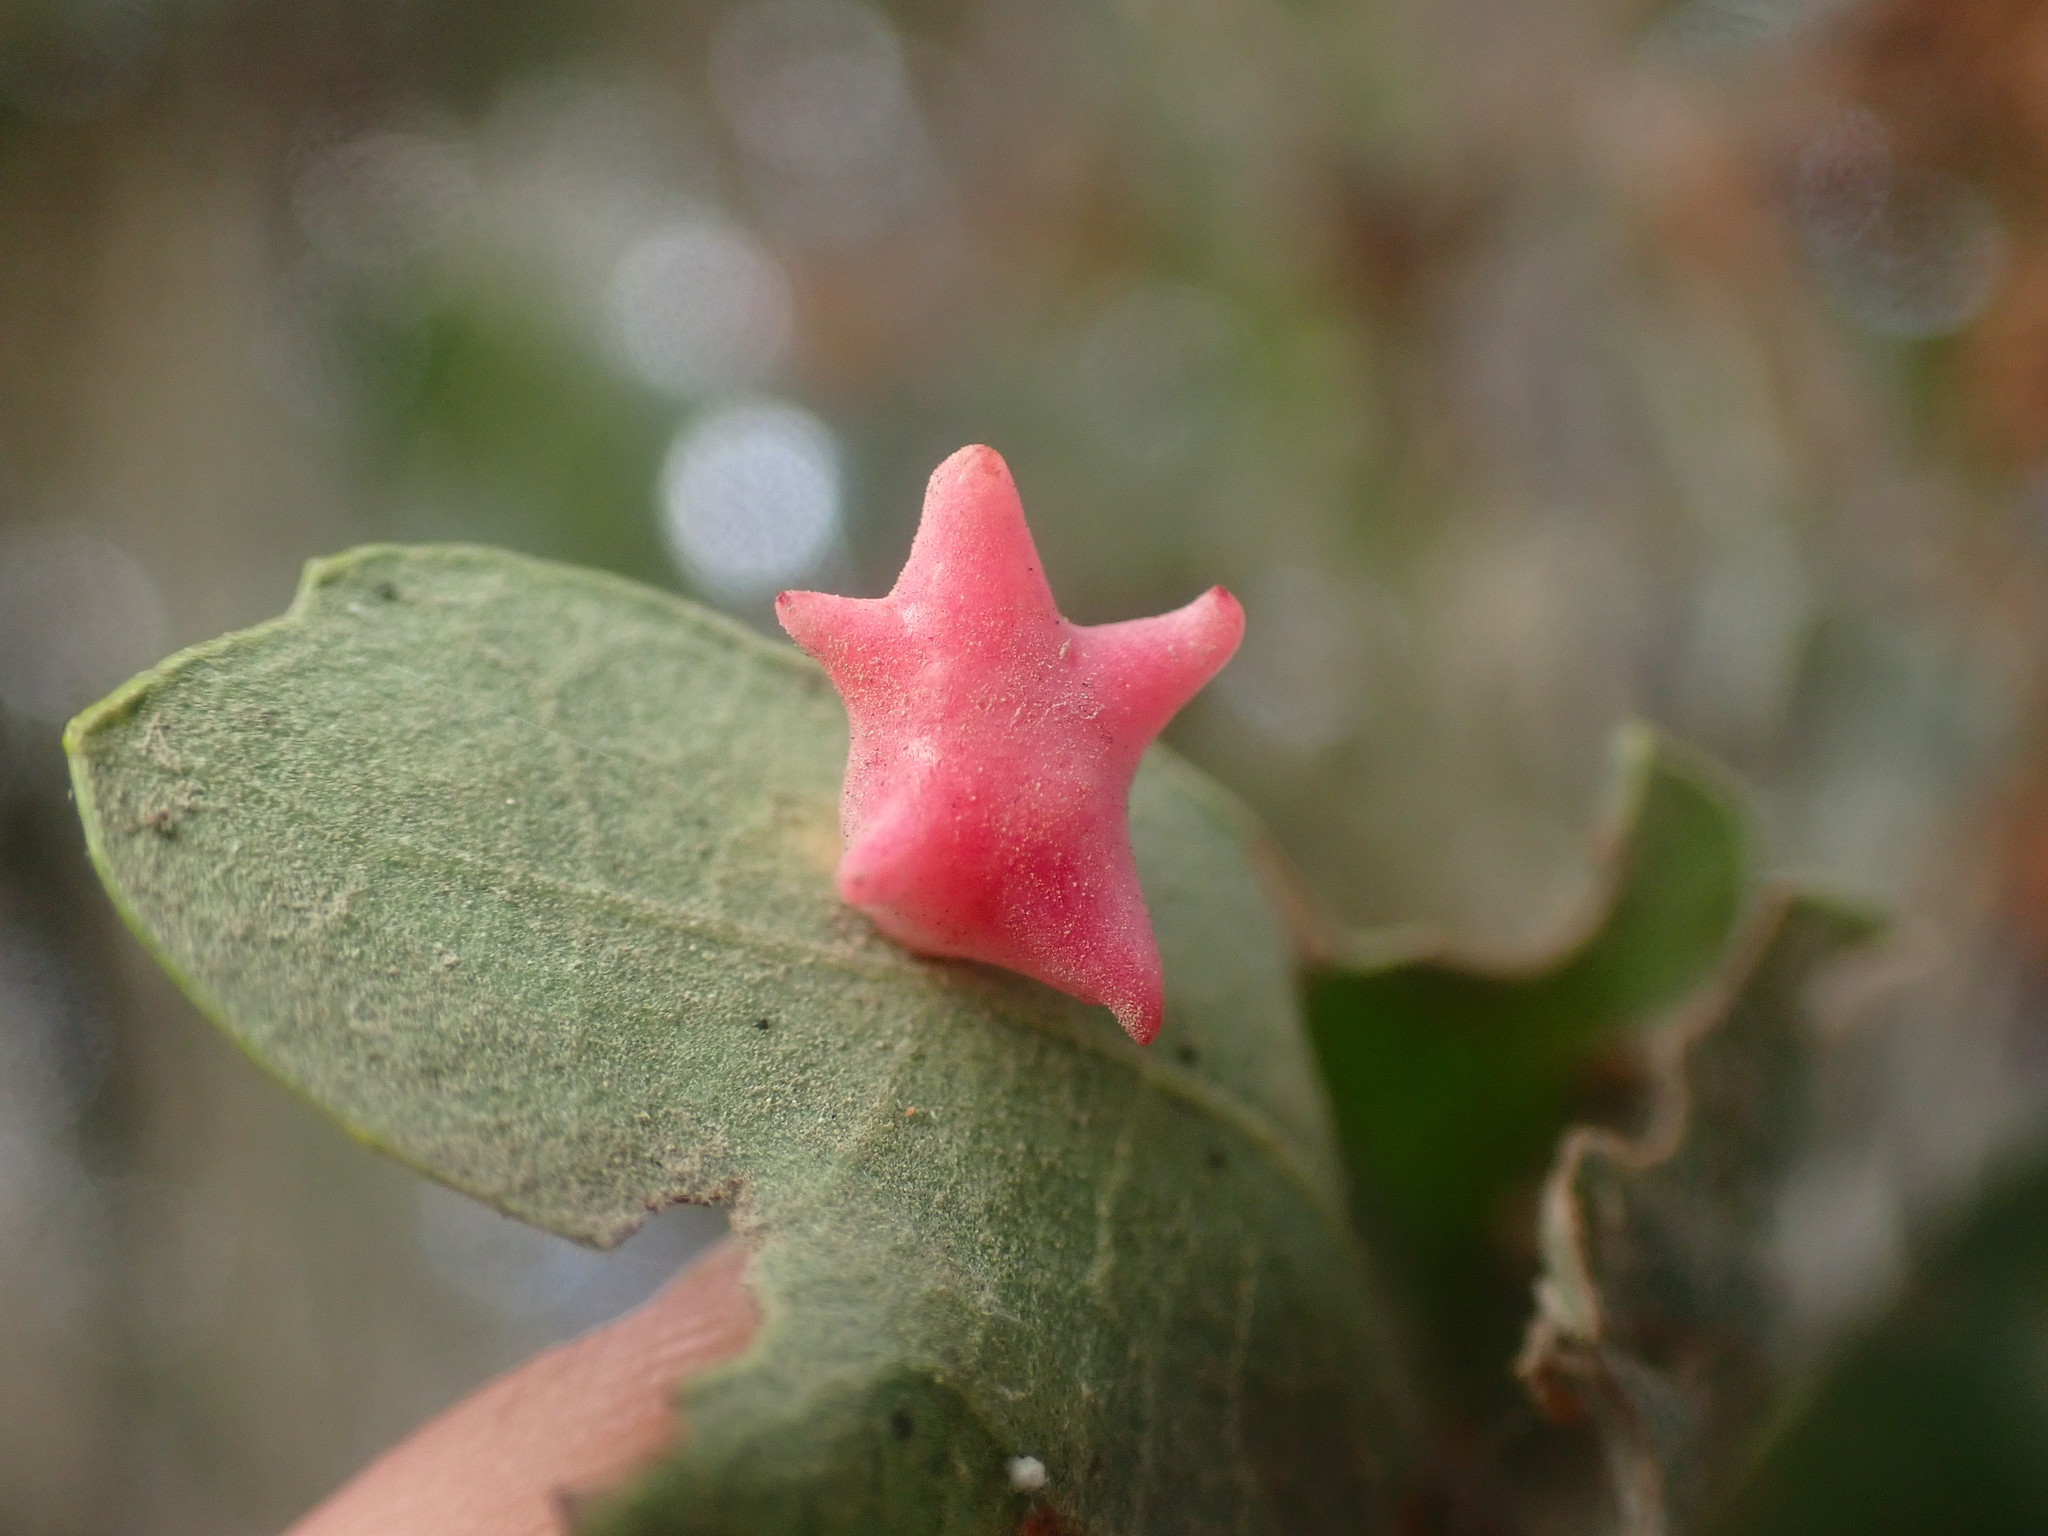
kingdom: Animalia
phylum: Arthropoda
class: Insecta
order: Hymenoptera
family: Cynipidae
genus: Cynips
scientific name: Cynips douglasi
